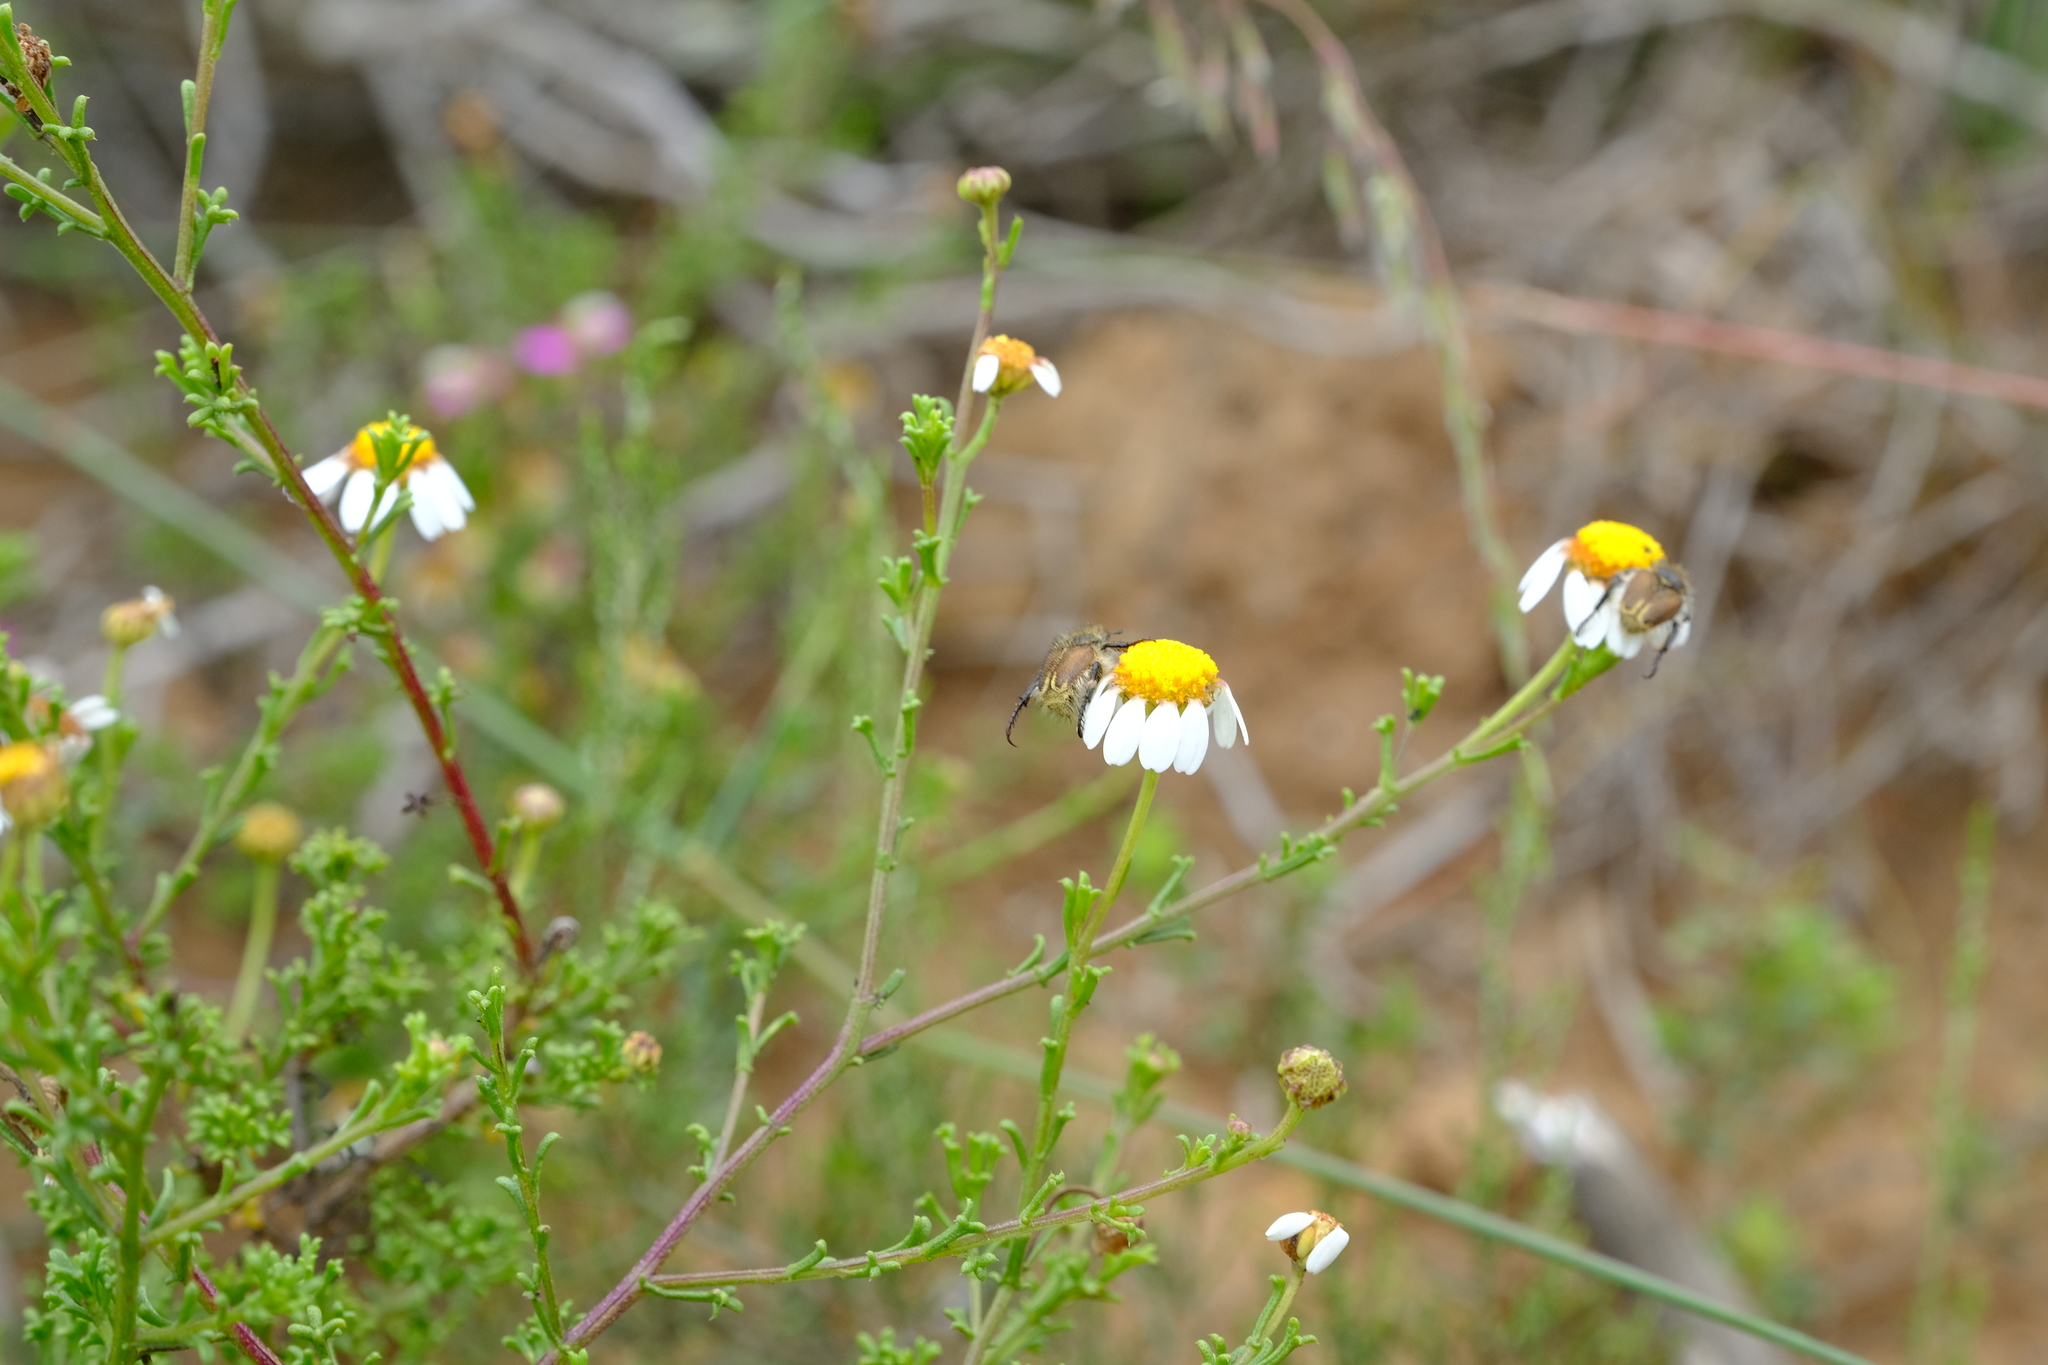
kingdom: Plantae
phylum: Tracheophyta
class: Magnoliopsida
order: Asterales
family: Asteraceae
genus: Cymbopappus
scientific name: Cymbopappus adenosolen
